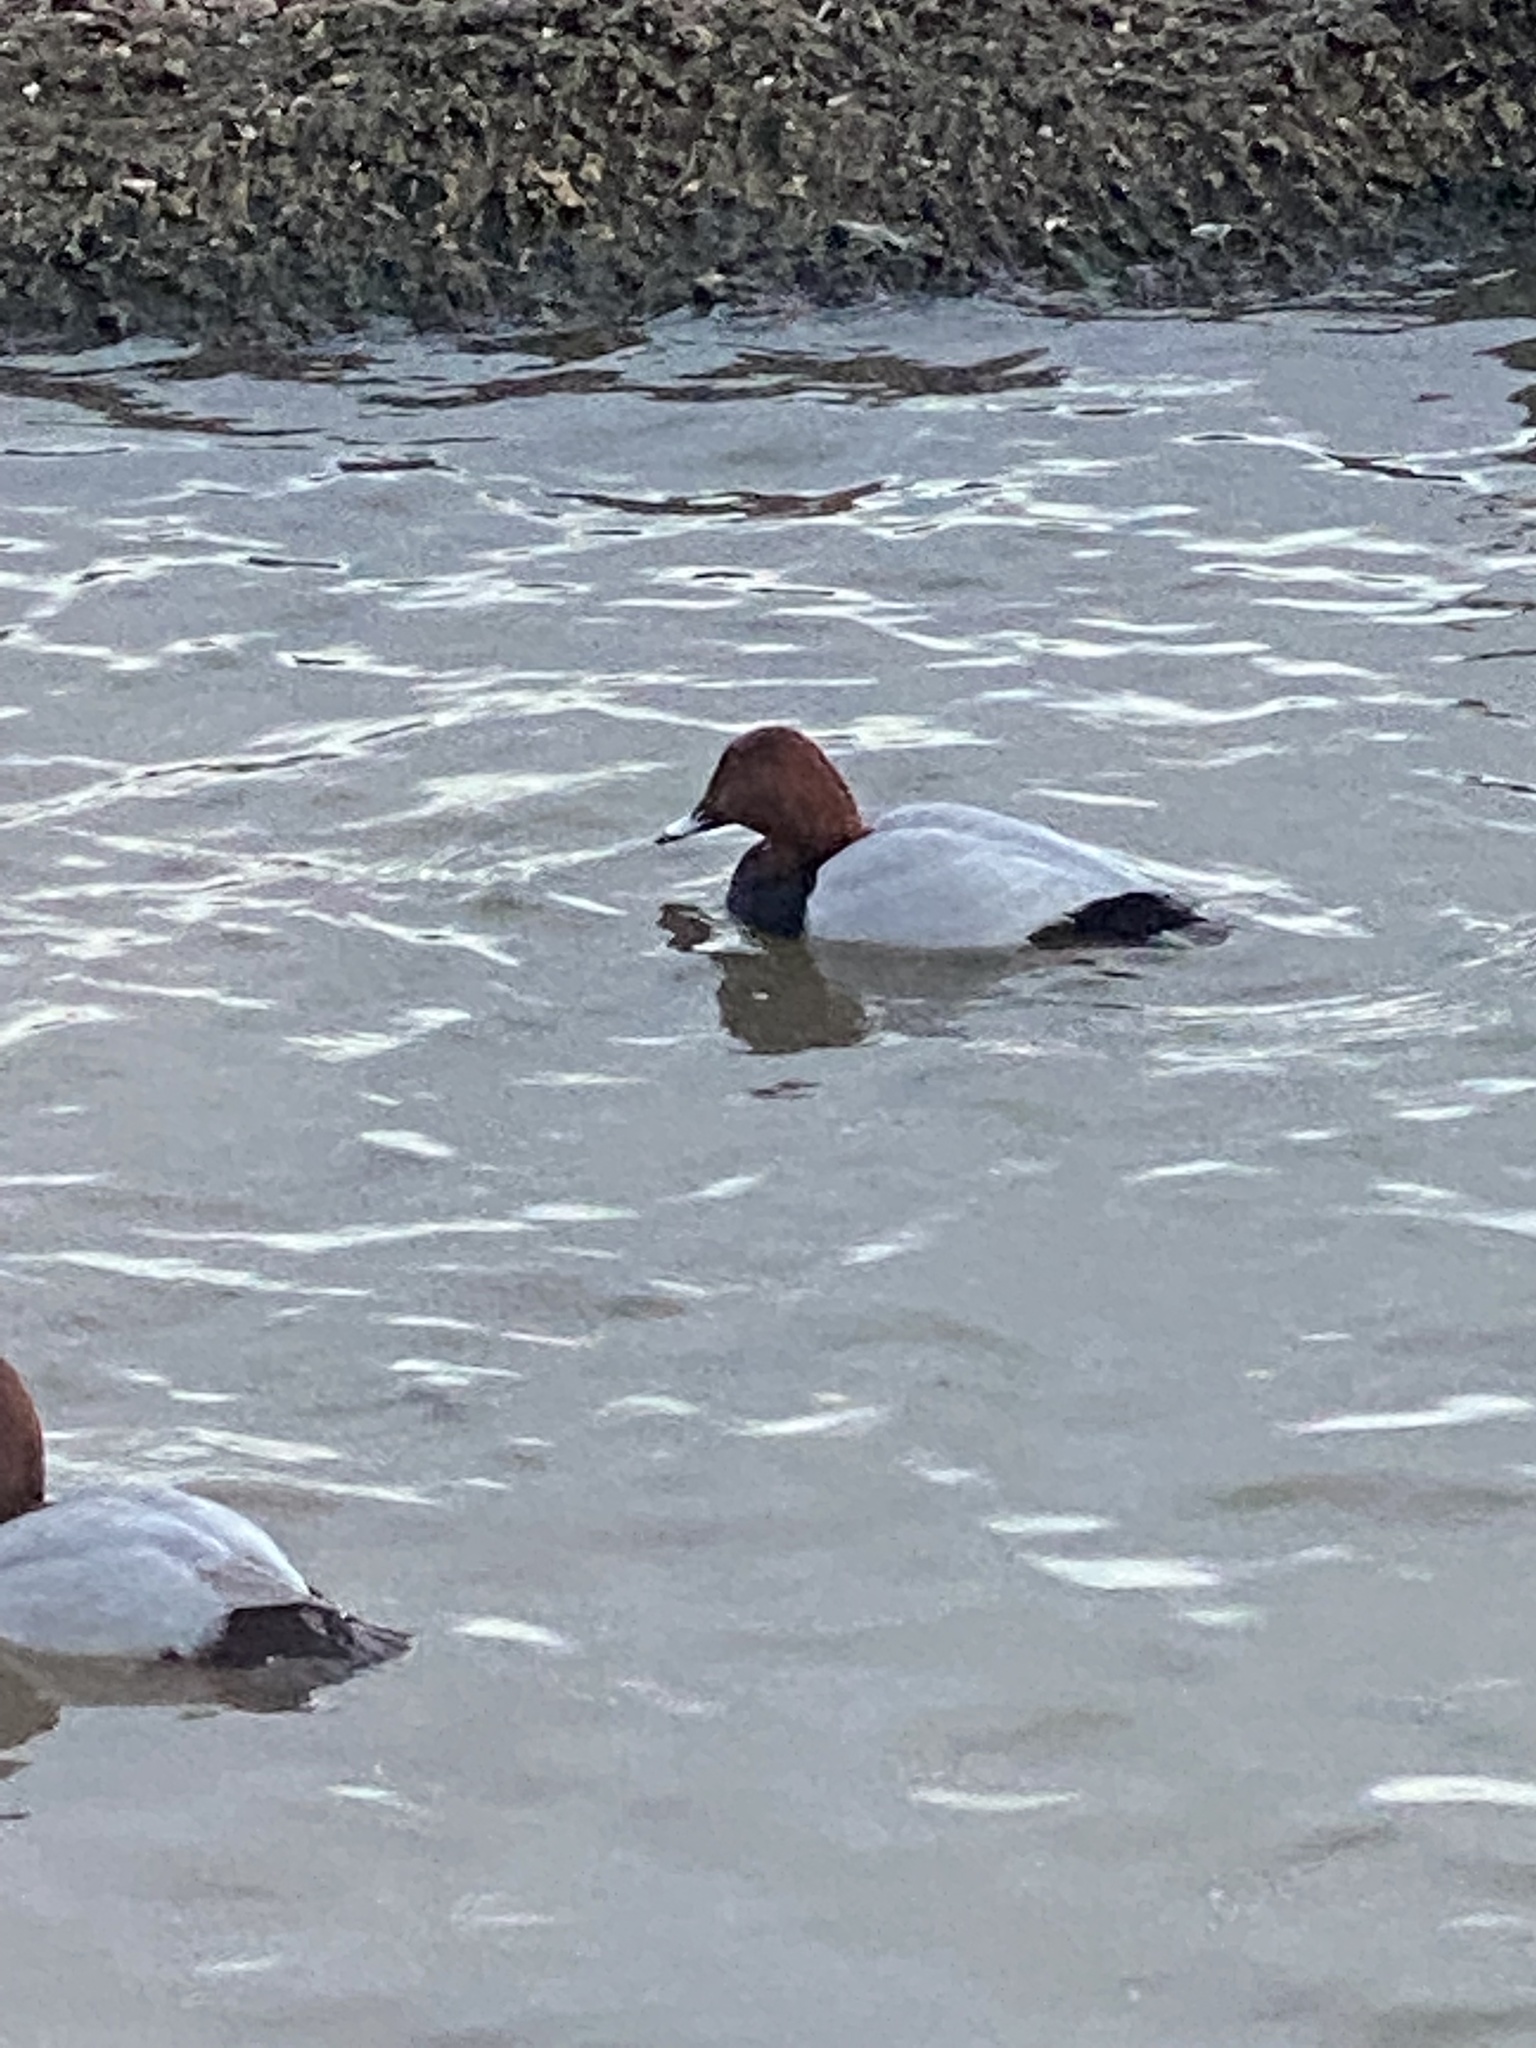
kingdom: Animalia
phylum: Chordata
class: Aves
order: Anseriformes
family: Anatidae
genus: Aythya
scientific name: Aythya ferina
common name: Common pochard
